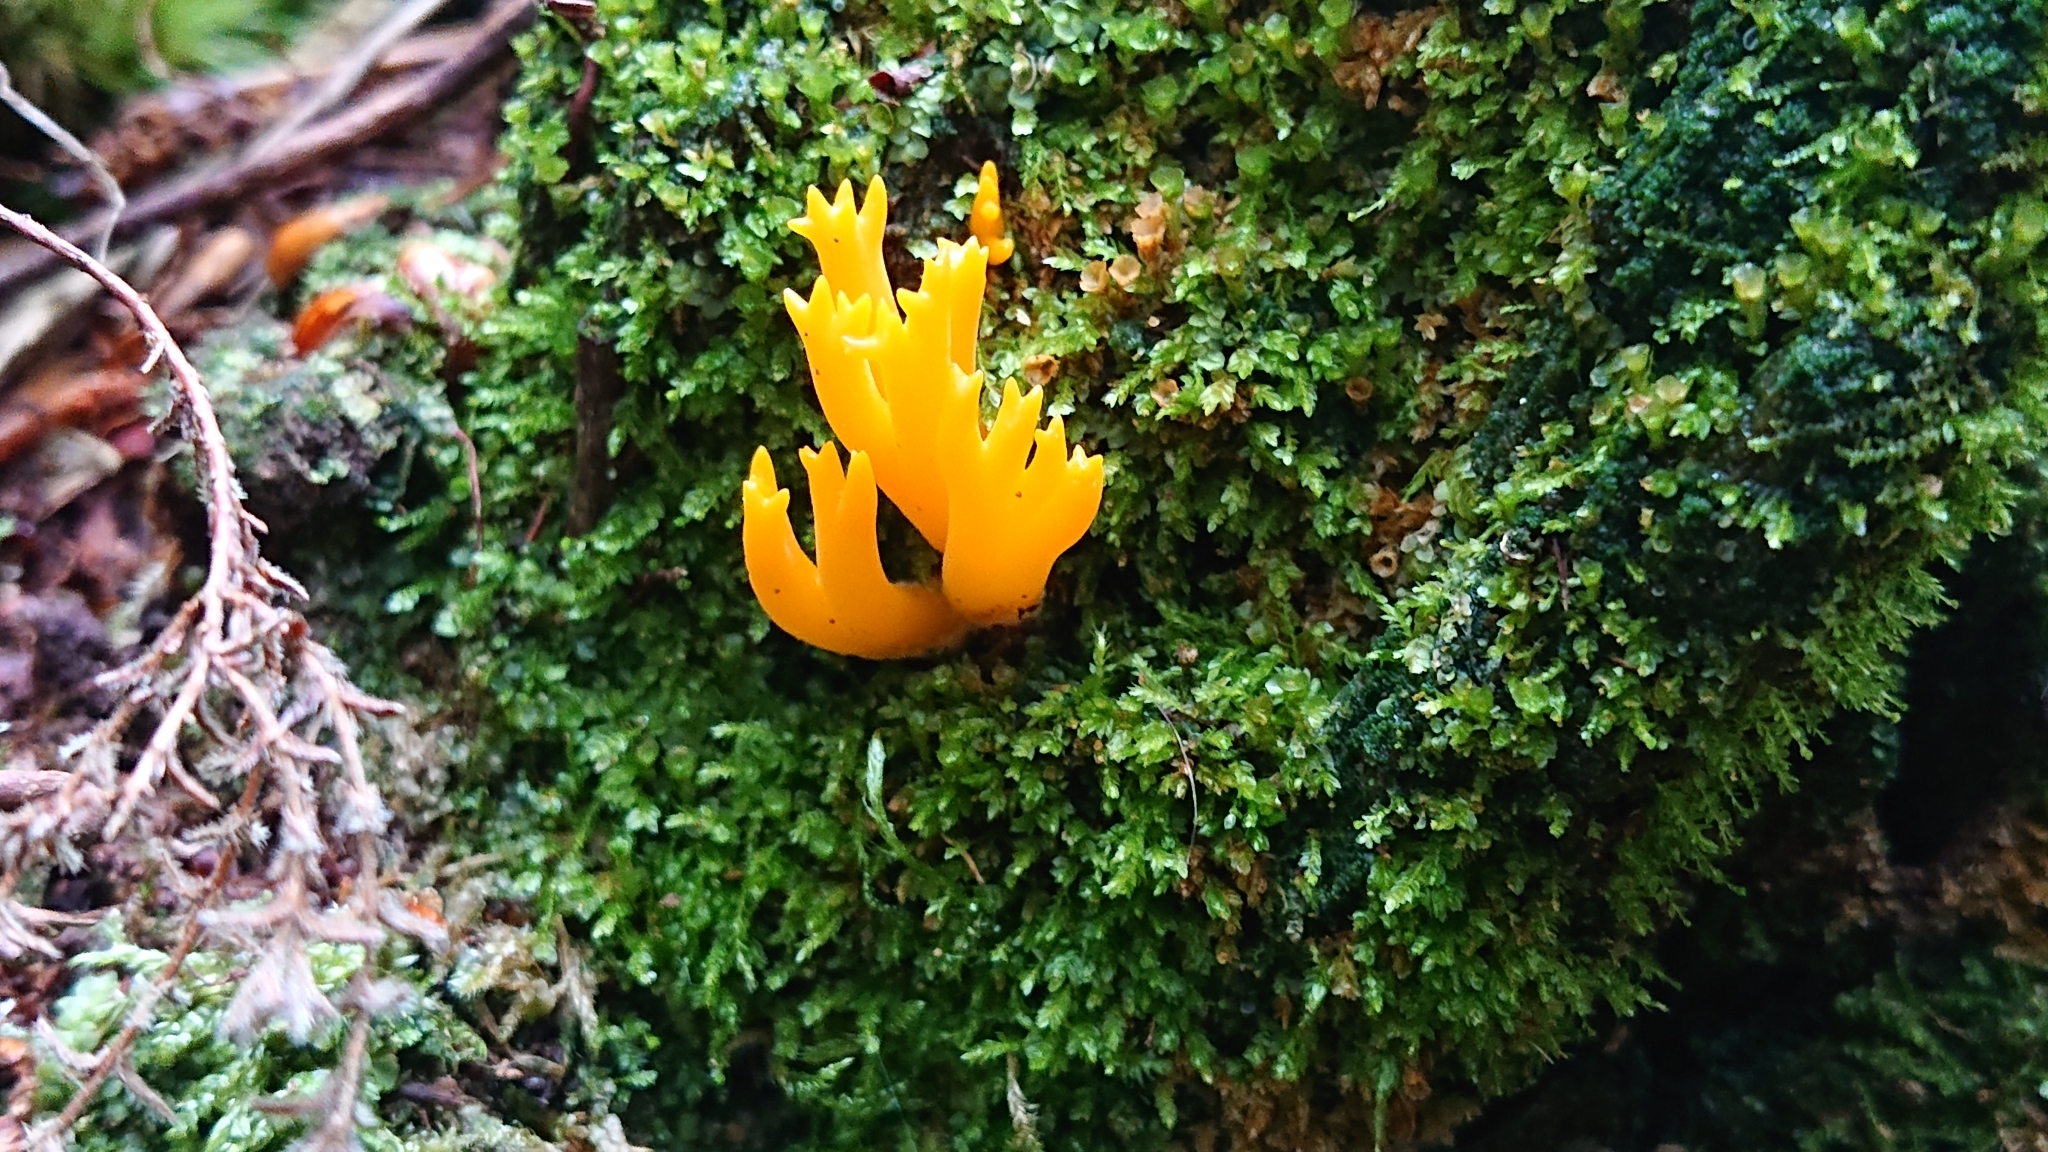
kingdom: Fungi
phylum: Basidiomycota
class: Dacrymycetes
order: Dacrymycetales
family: Dacrymycetaceae
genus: Calocera
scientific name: Calocera viscosa
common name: Yellow stagshorn
